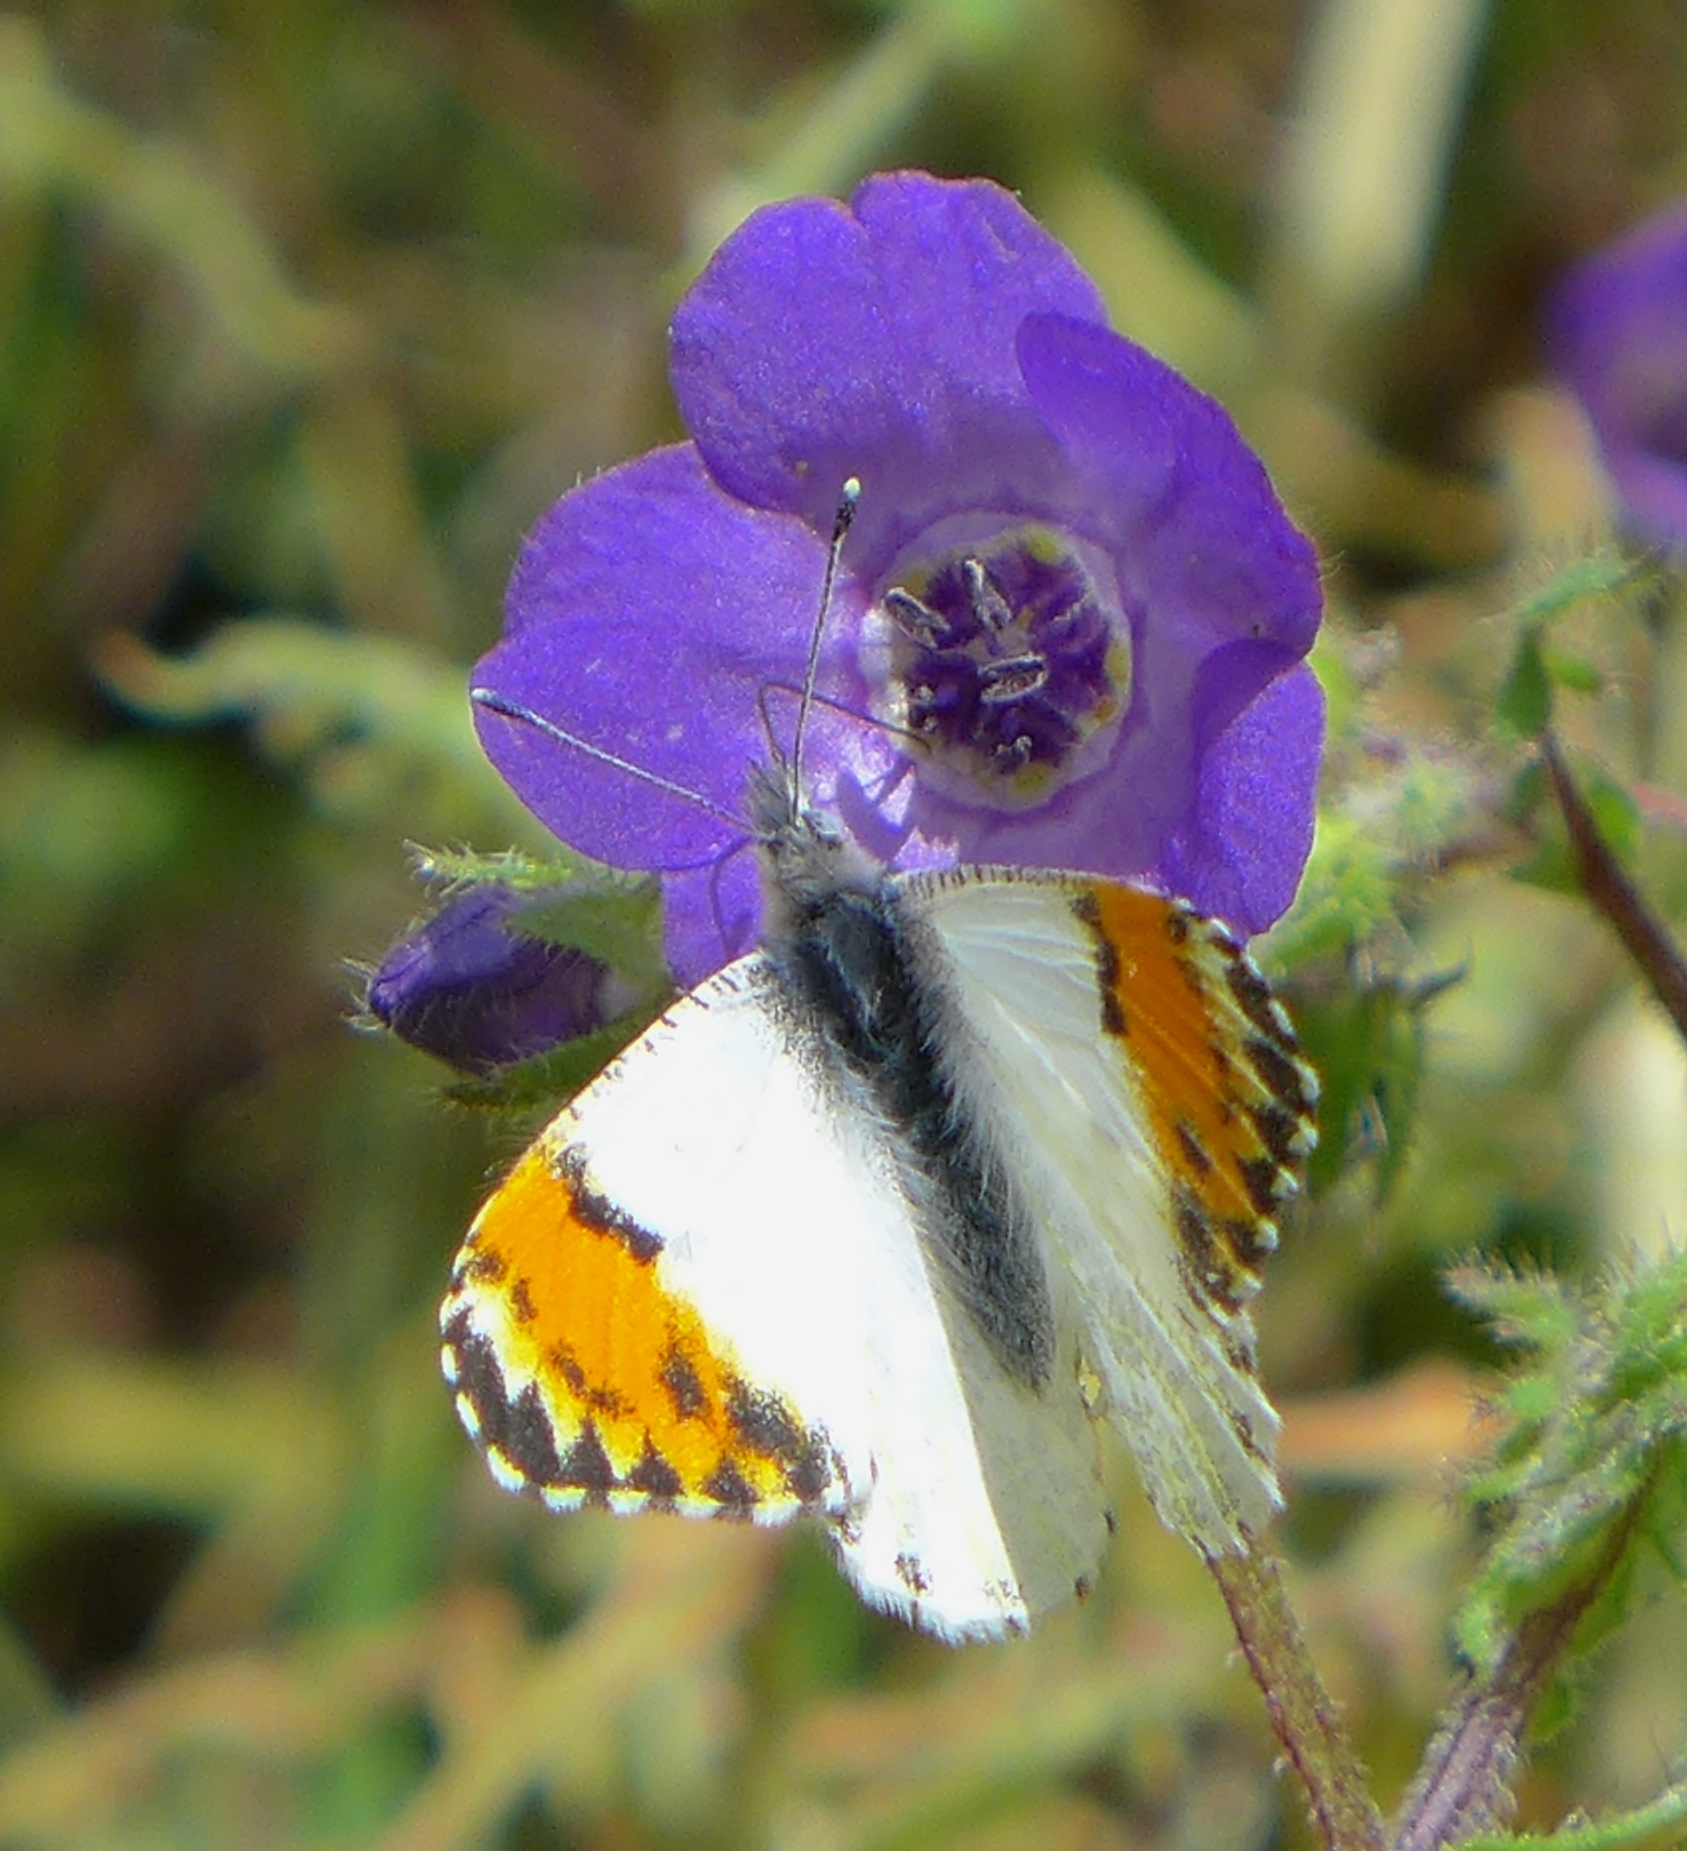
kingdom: Animalia
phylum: Arthropoda
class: Insecta
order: Lepidoptera
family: Pieridae
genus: Anthocharis
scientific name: Anthocharis sara
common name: Sara's orangetip
